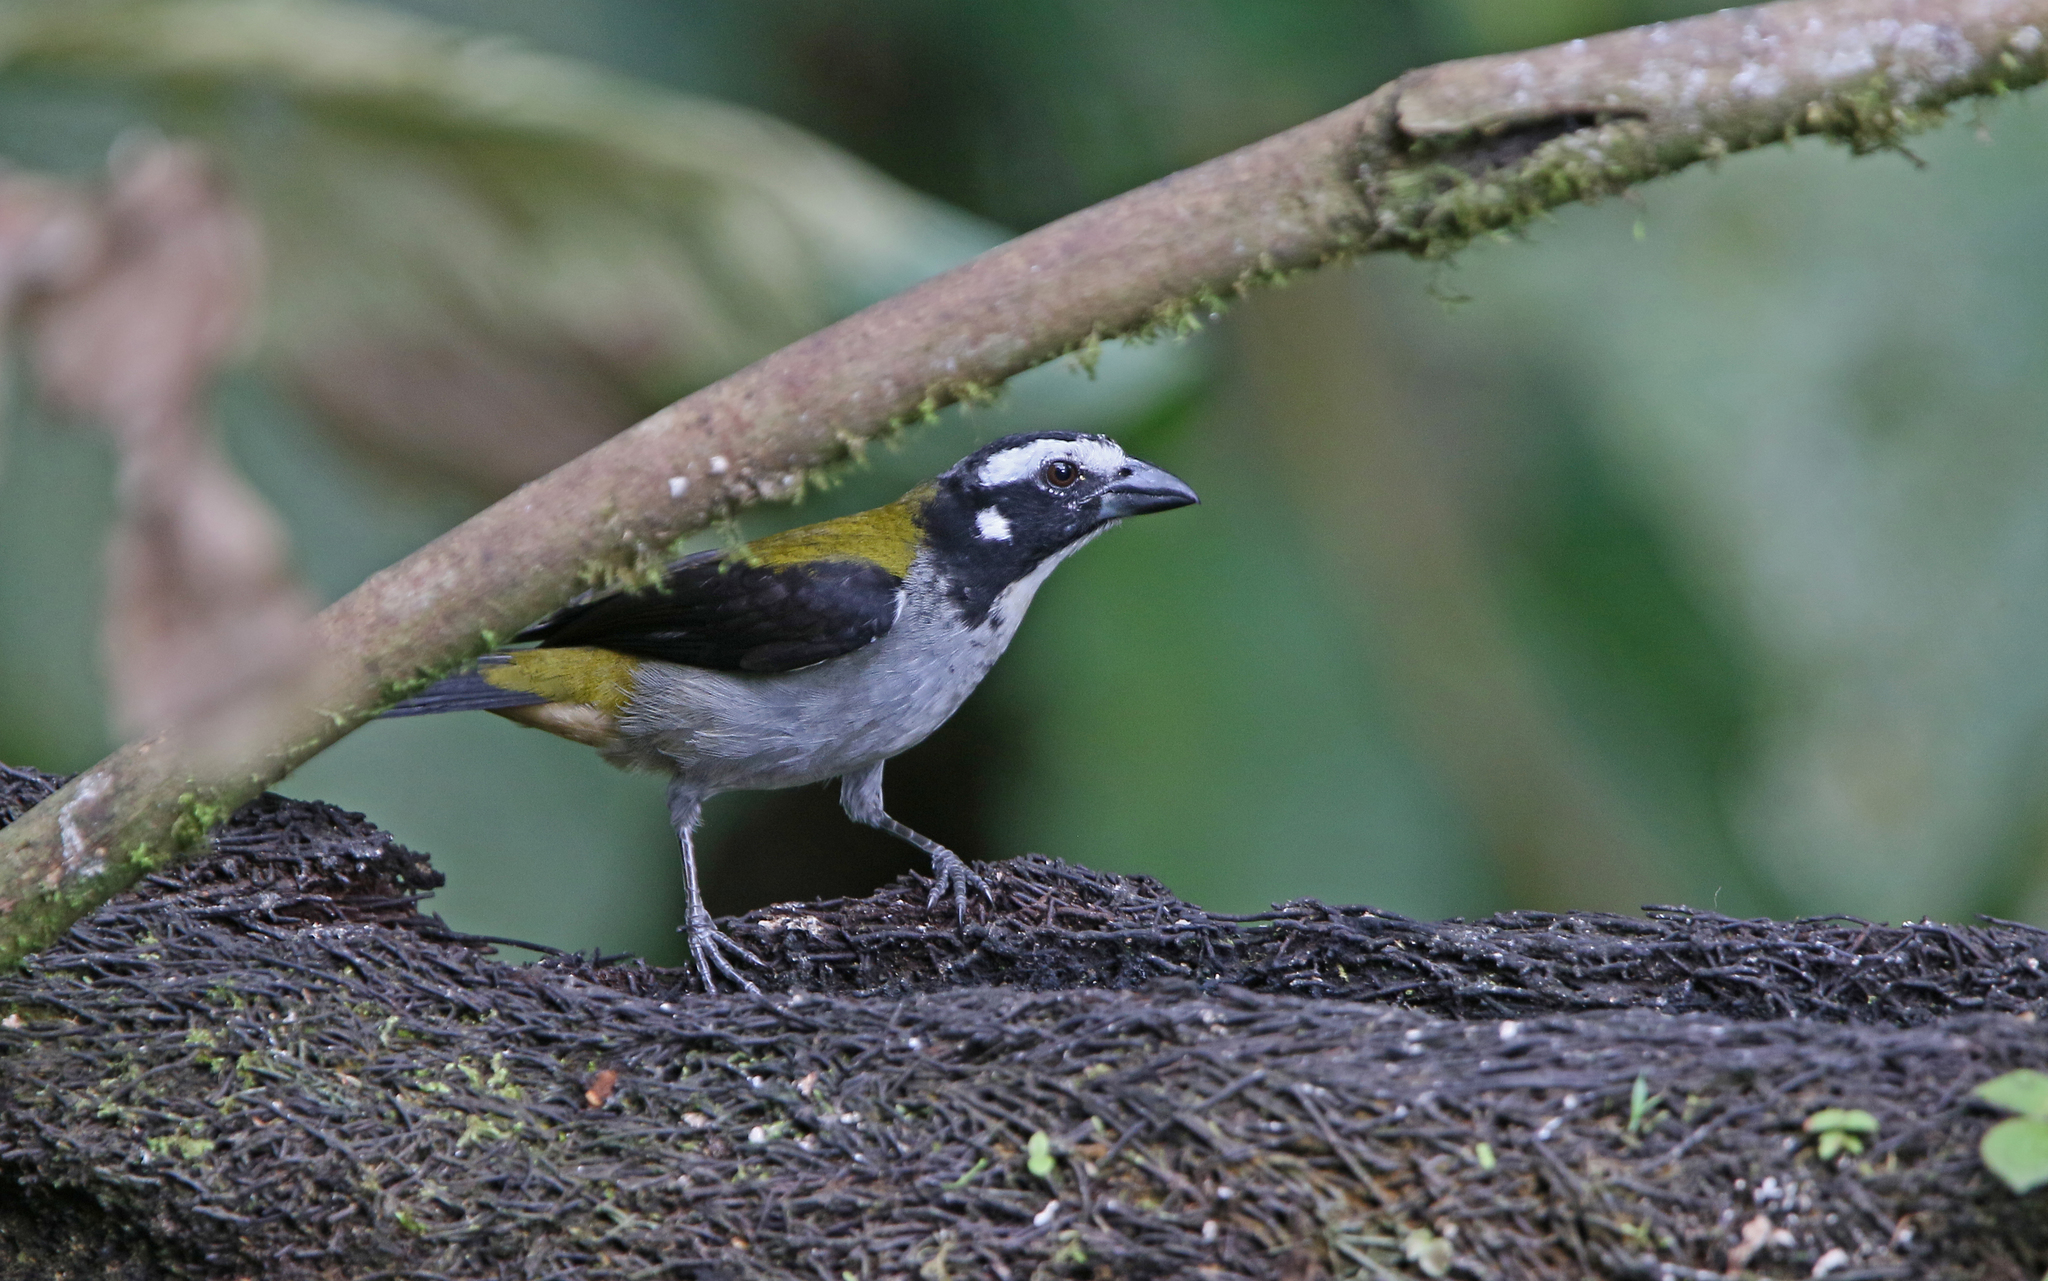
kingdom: Animalia
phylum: Chordata
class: Aves
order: Passeriformes
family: Thraupidae
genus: Saltator
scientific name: Saltator atripennis
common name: Black-winged saltator
